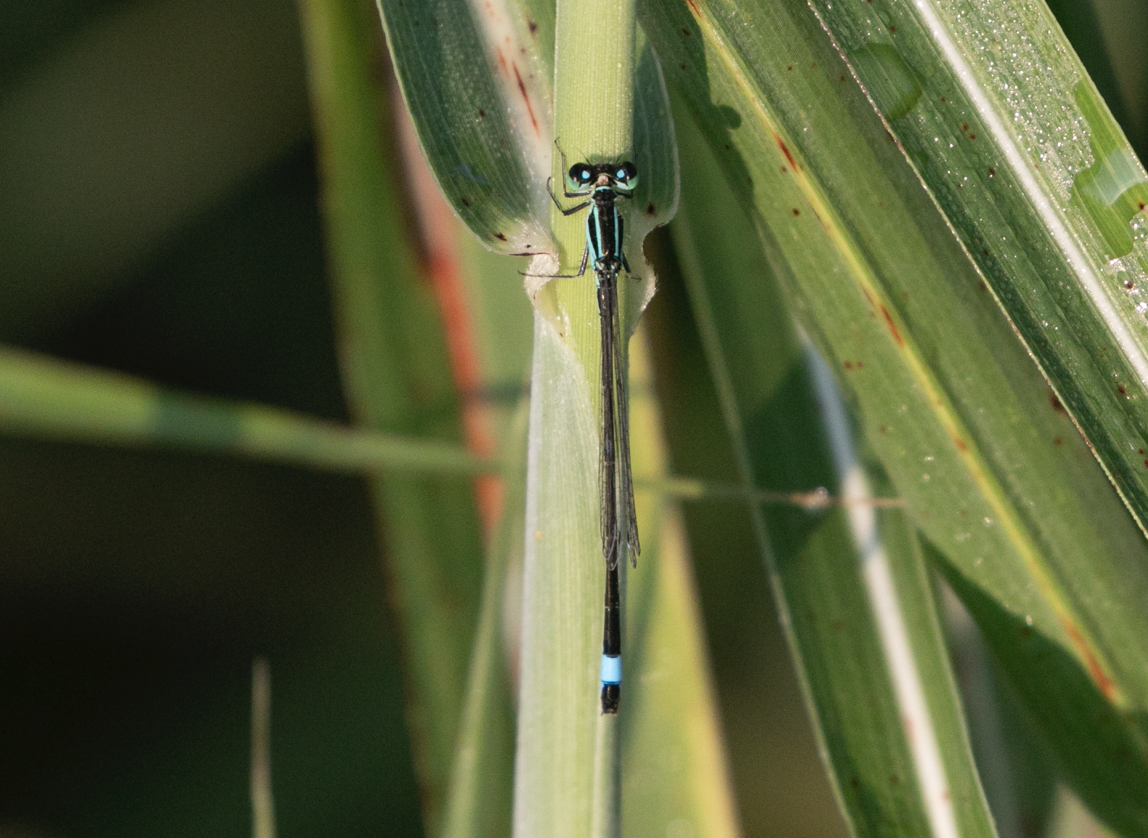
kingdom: Animalia
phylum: Arthropoda
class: Insecta
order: Odonata
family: Coenagrionidae
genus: Ischnura
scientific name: Ischnura elegans
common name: Blue-tailed damselfly
